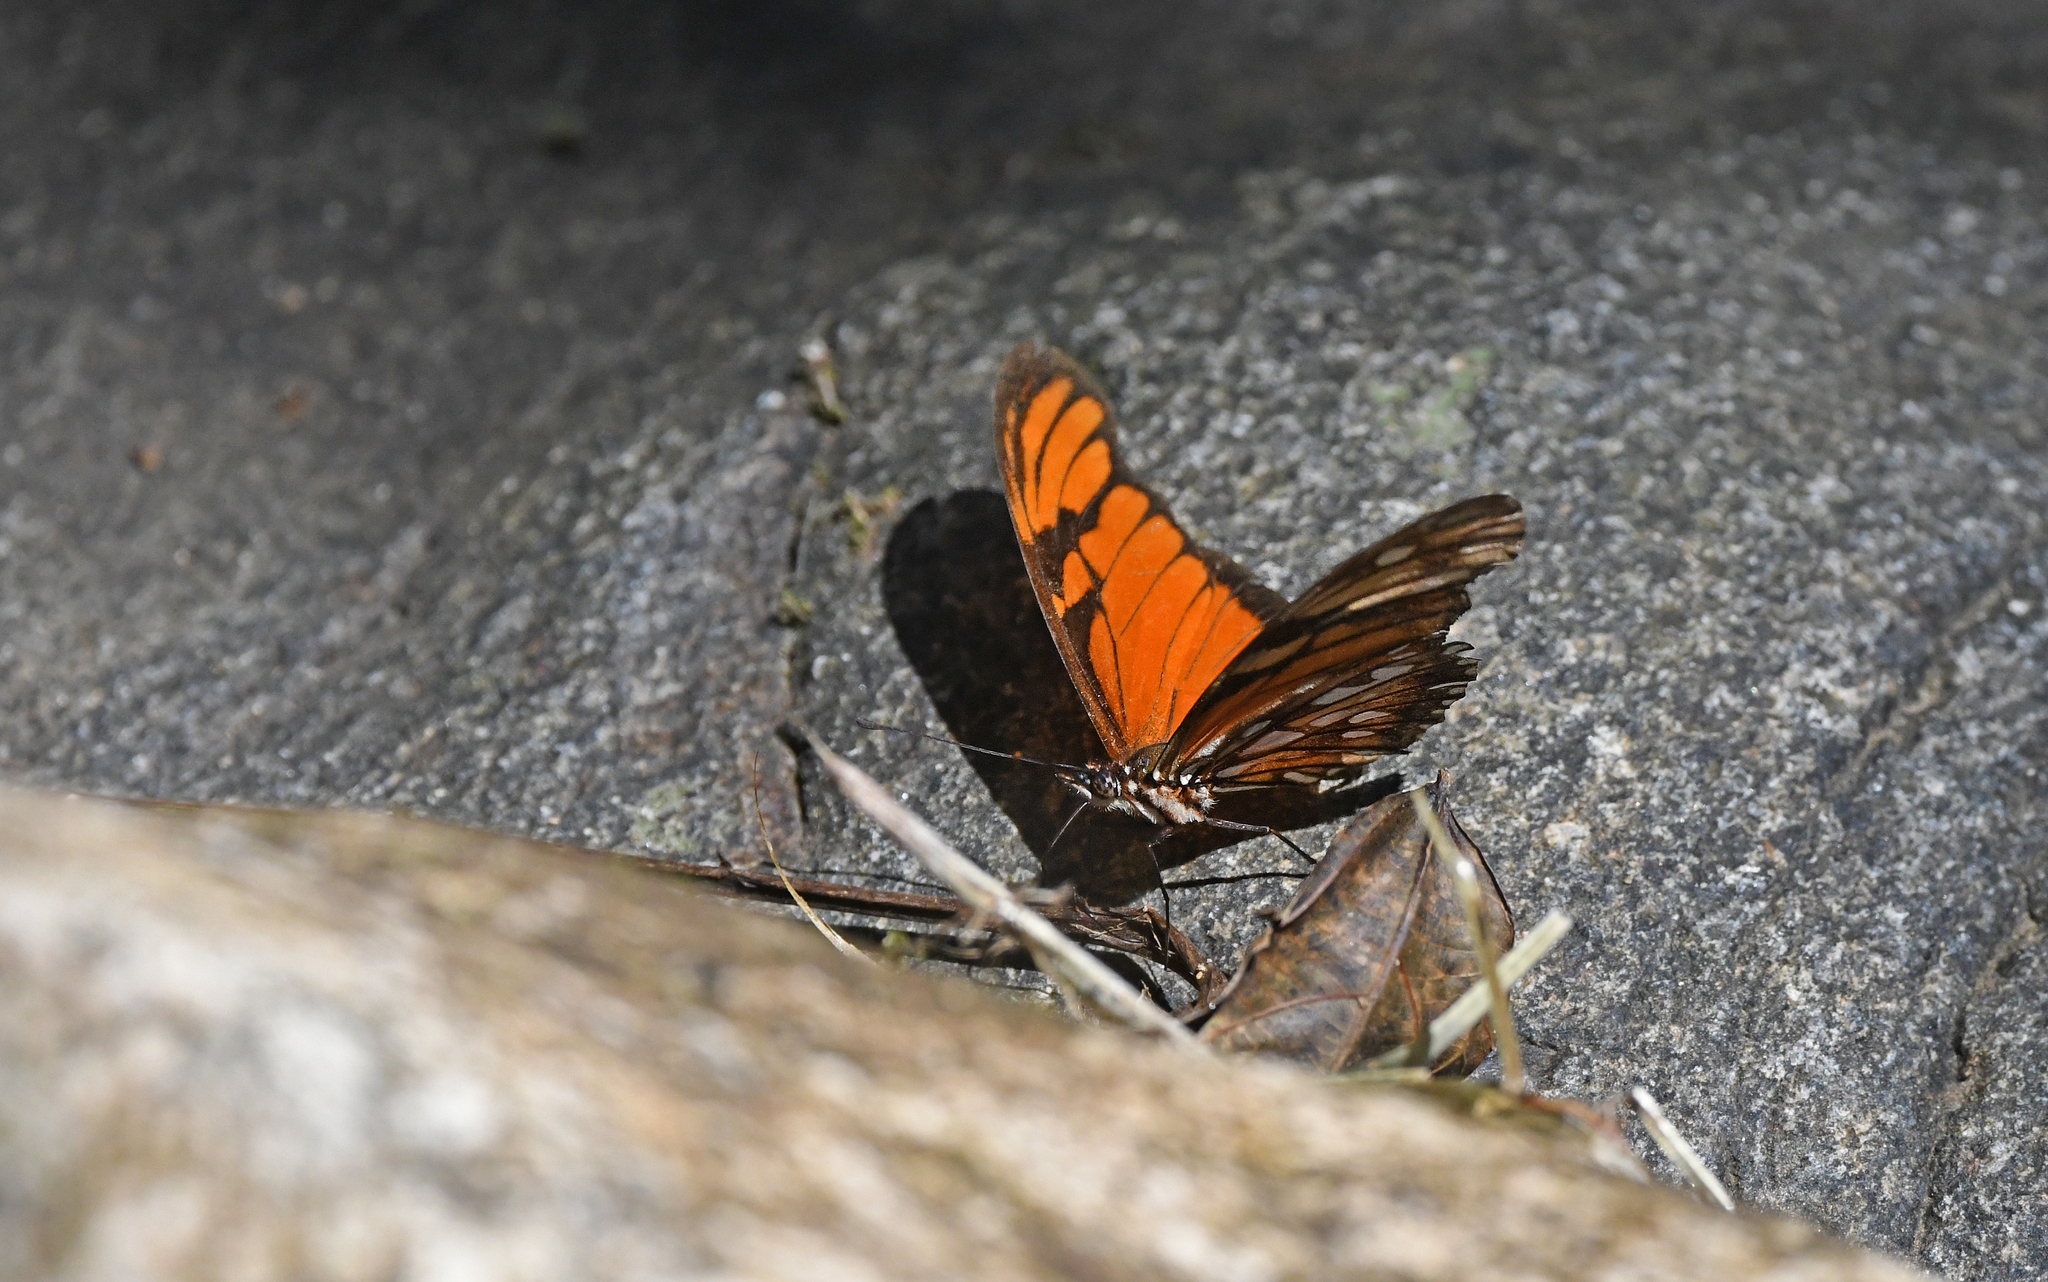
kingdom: Animalia
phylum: Arthropoda
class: Insecta
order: Lepidoptera
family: Nymphalidae
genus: Dione
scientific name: Dione juno
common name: Juno silverspot
